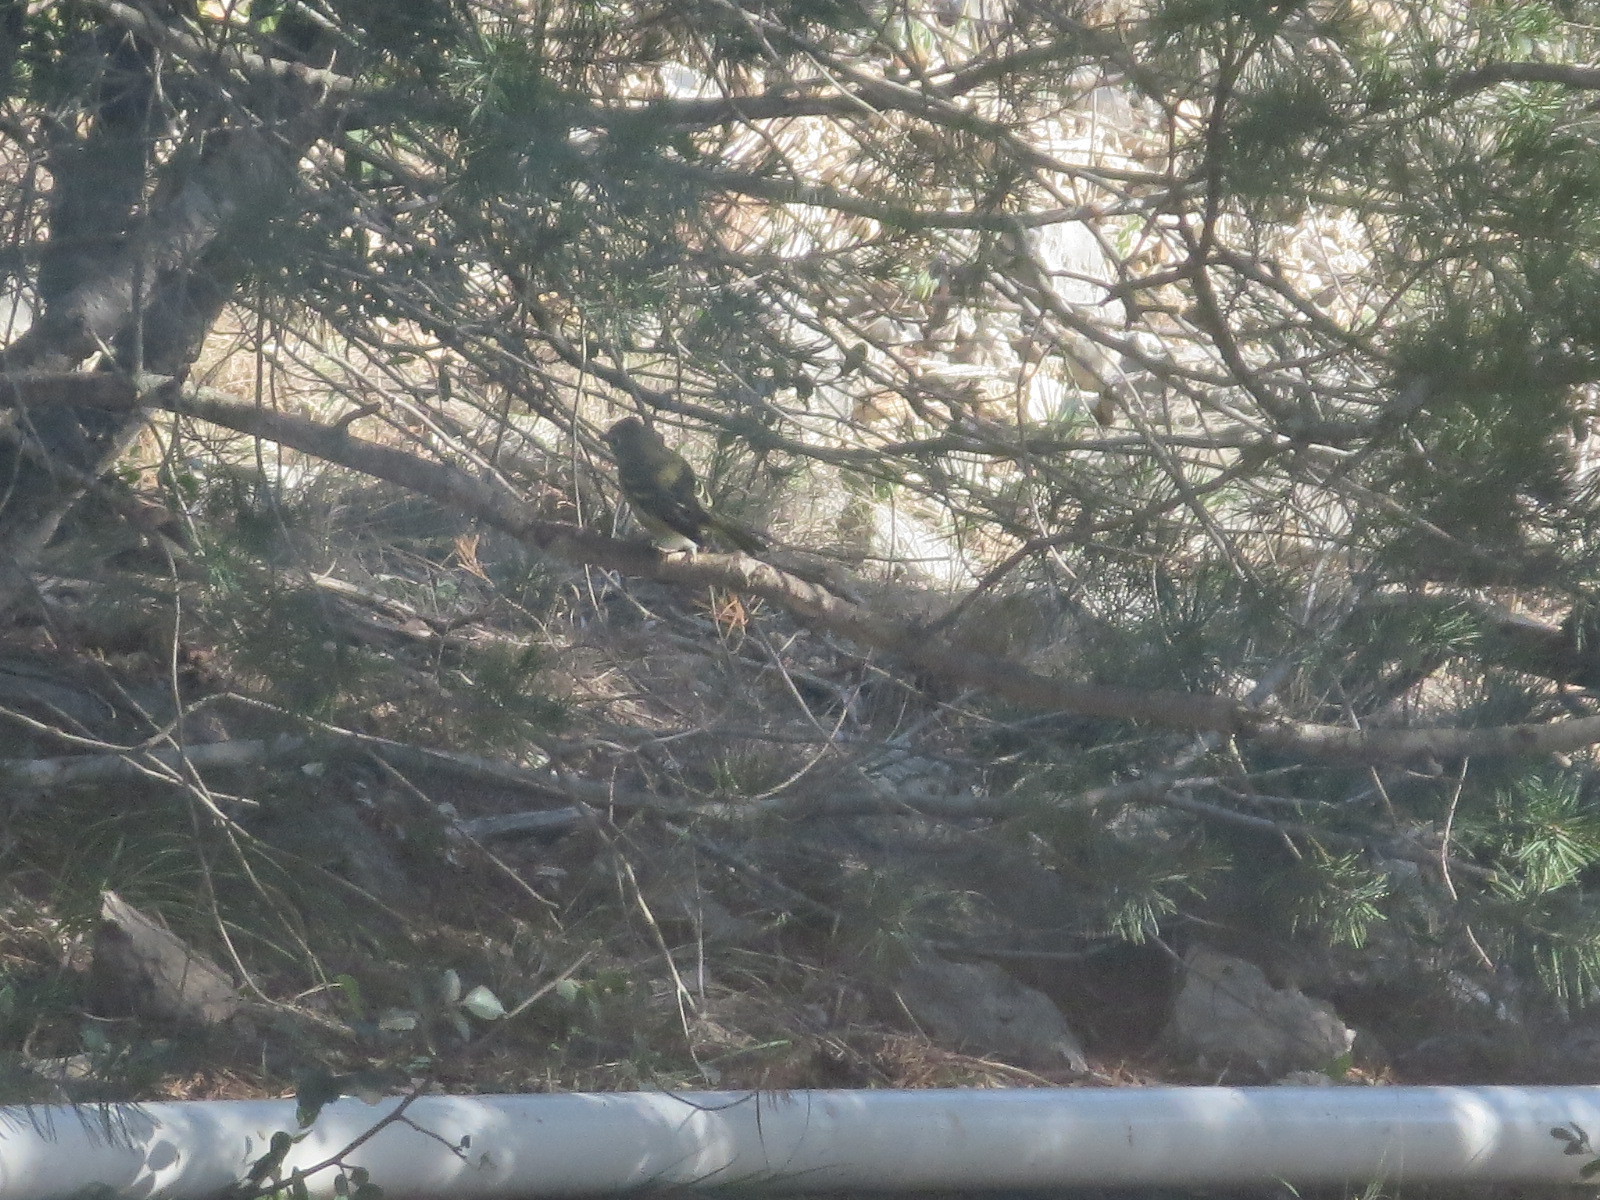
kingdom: Animalia
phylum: Chordata
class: Aves
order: Passeriformes
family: Vireonidae
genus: Vireo
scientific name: Vireo solitarius
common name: Blue-headed vireo
